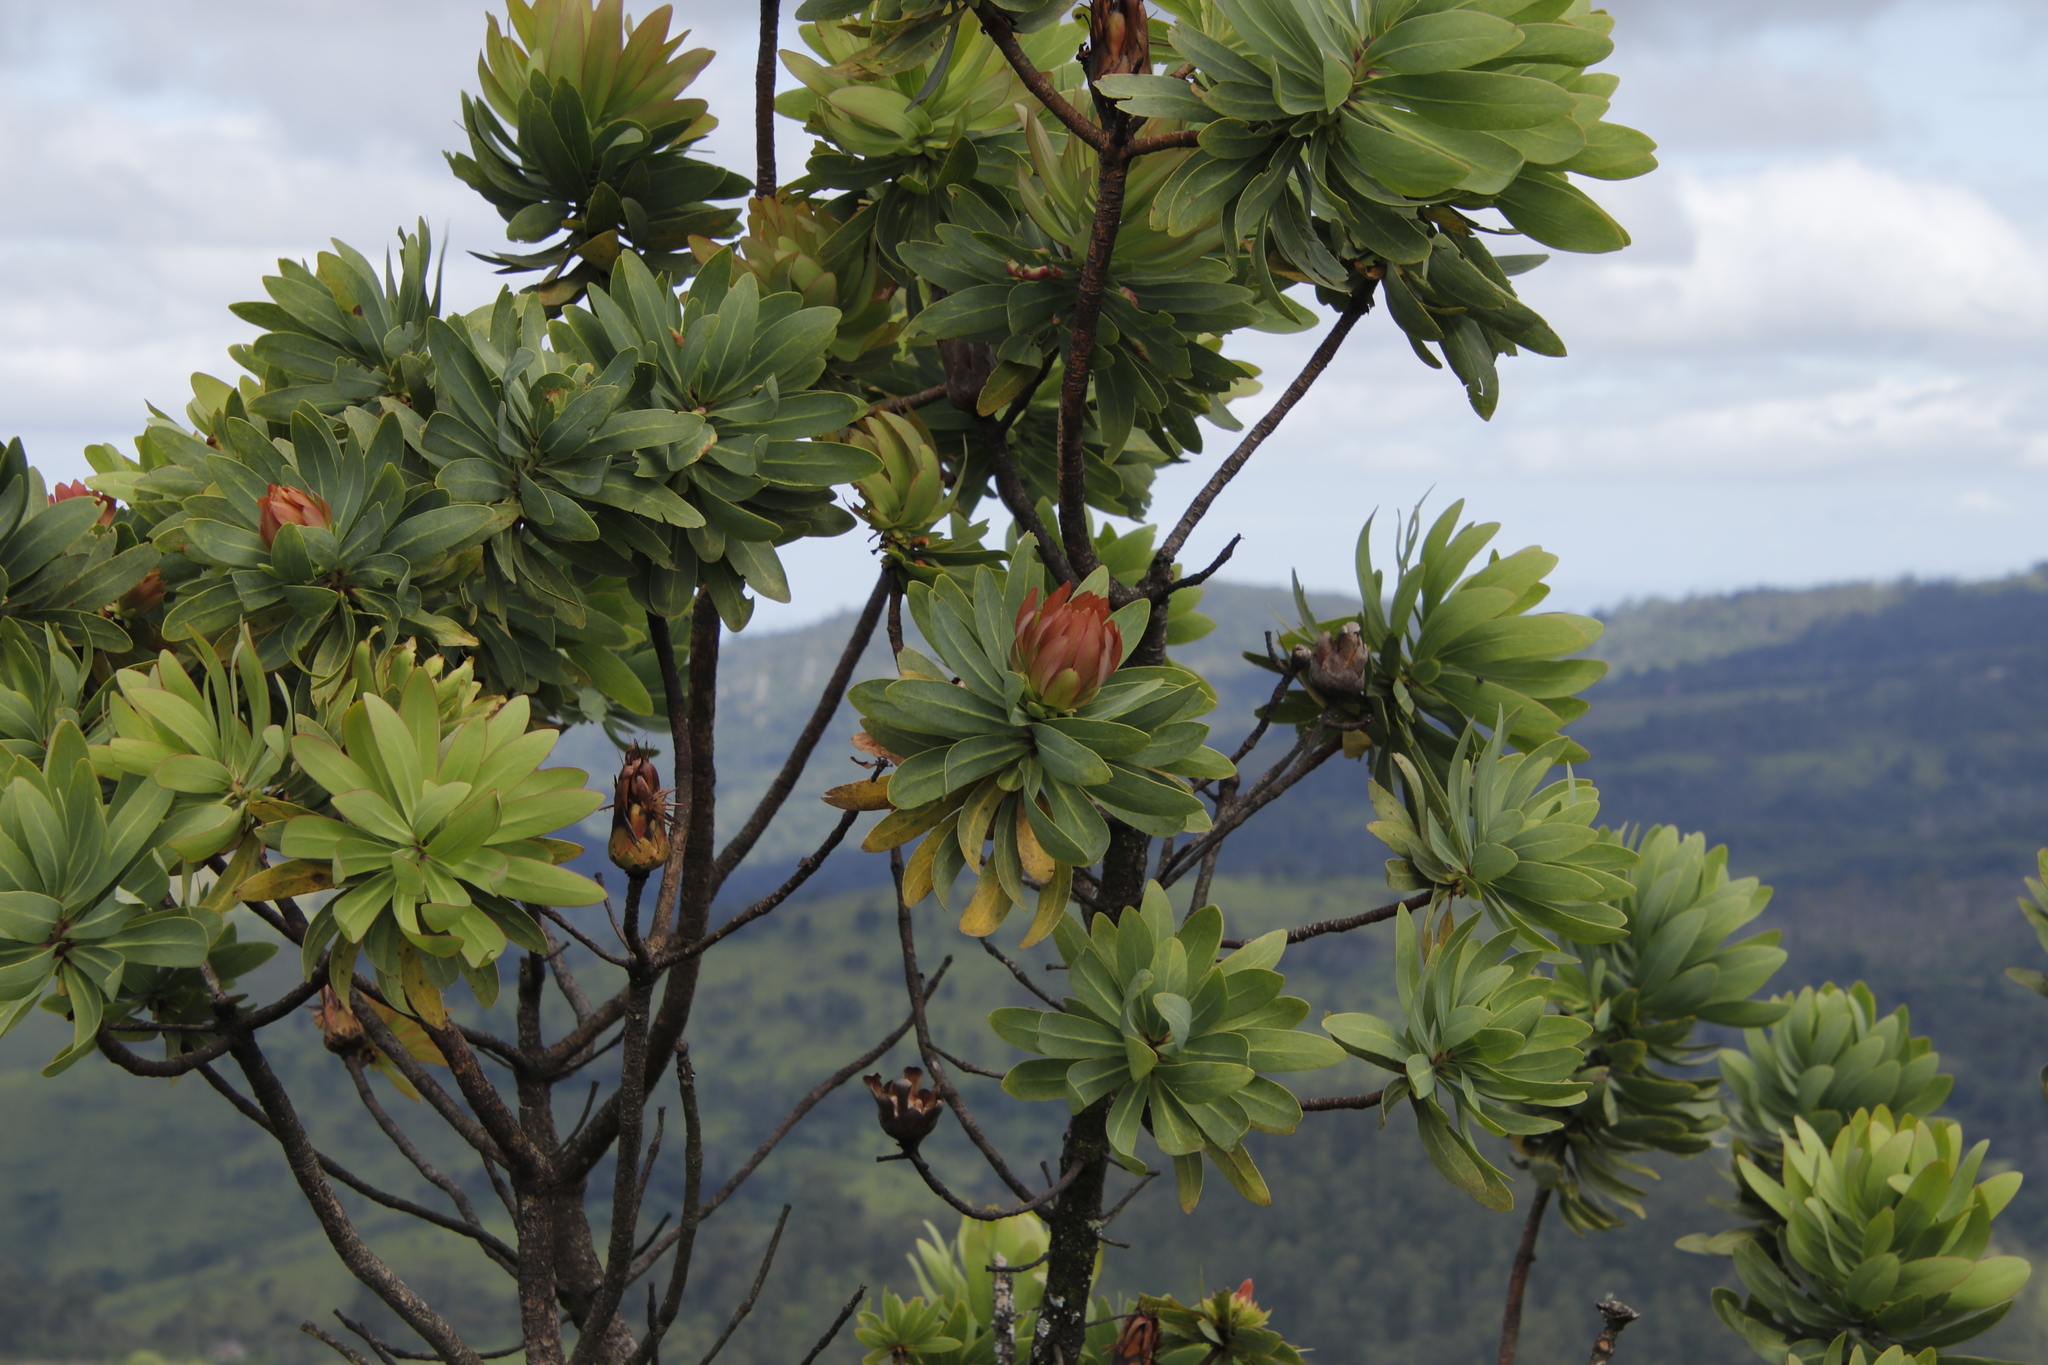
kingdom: Plantae
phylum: Tracheophyta
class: Magnoliopsida
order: Proteales
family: Proteaceae
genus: Protea
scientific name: Protea caffra
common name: Common sugarbush
